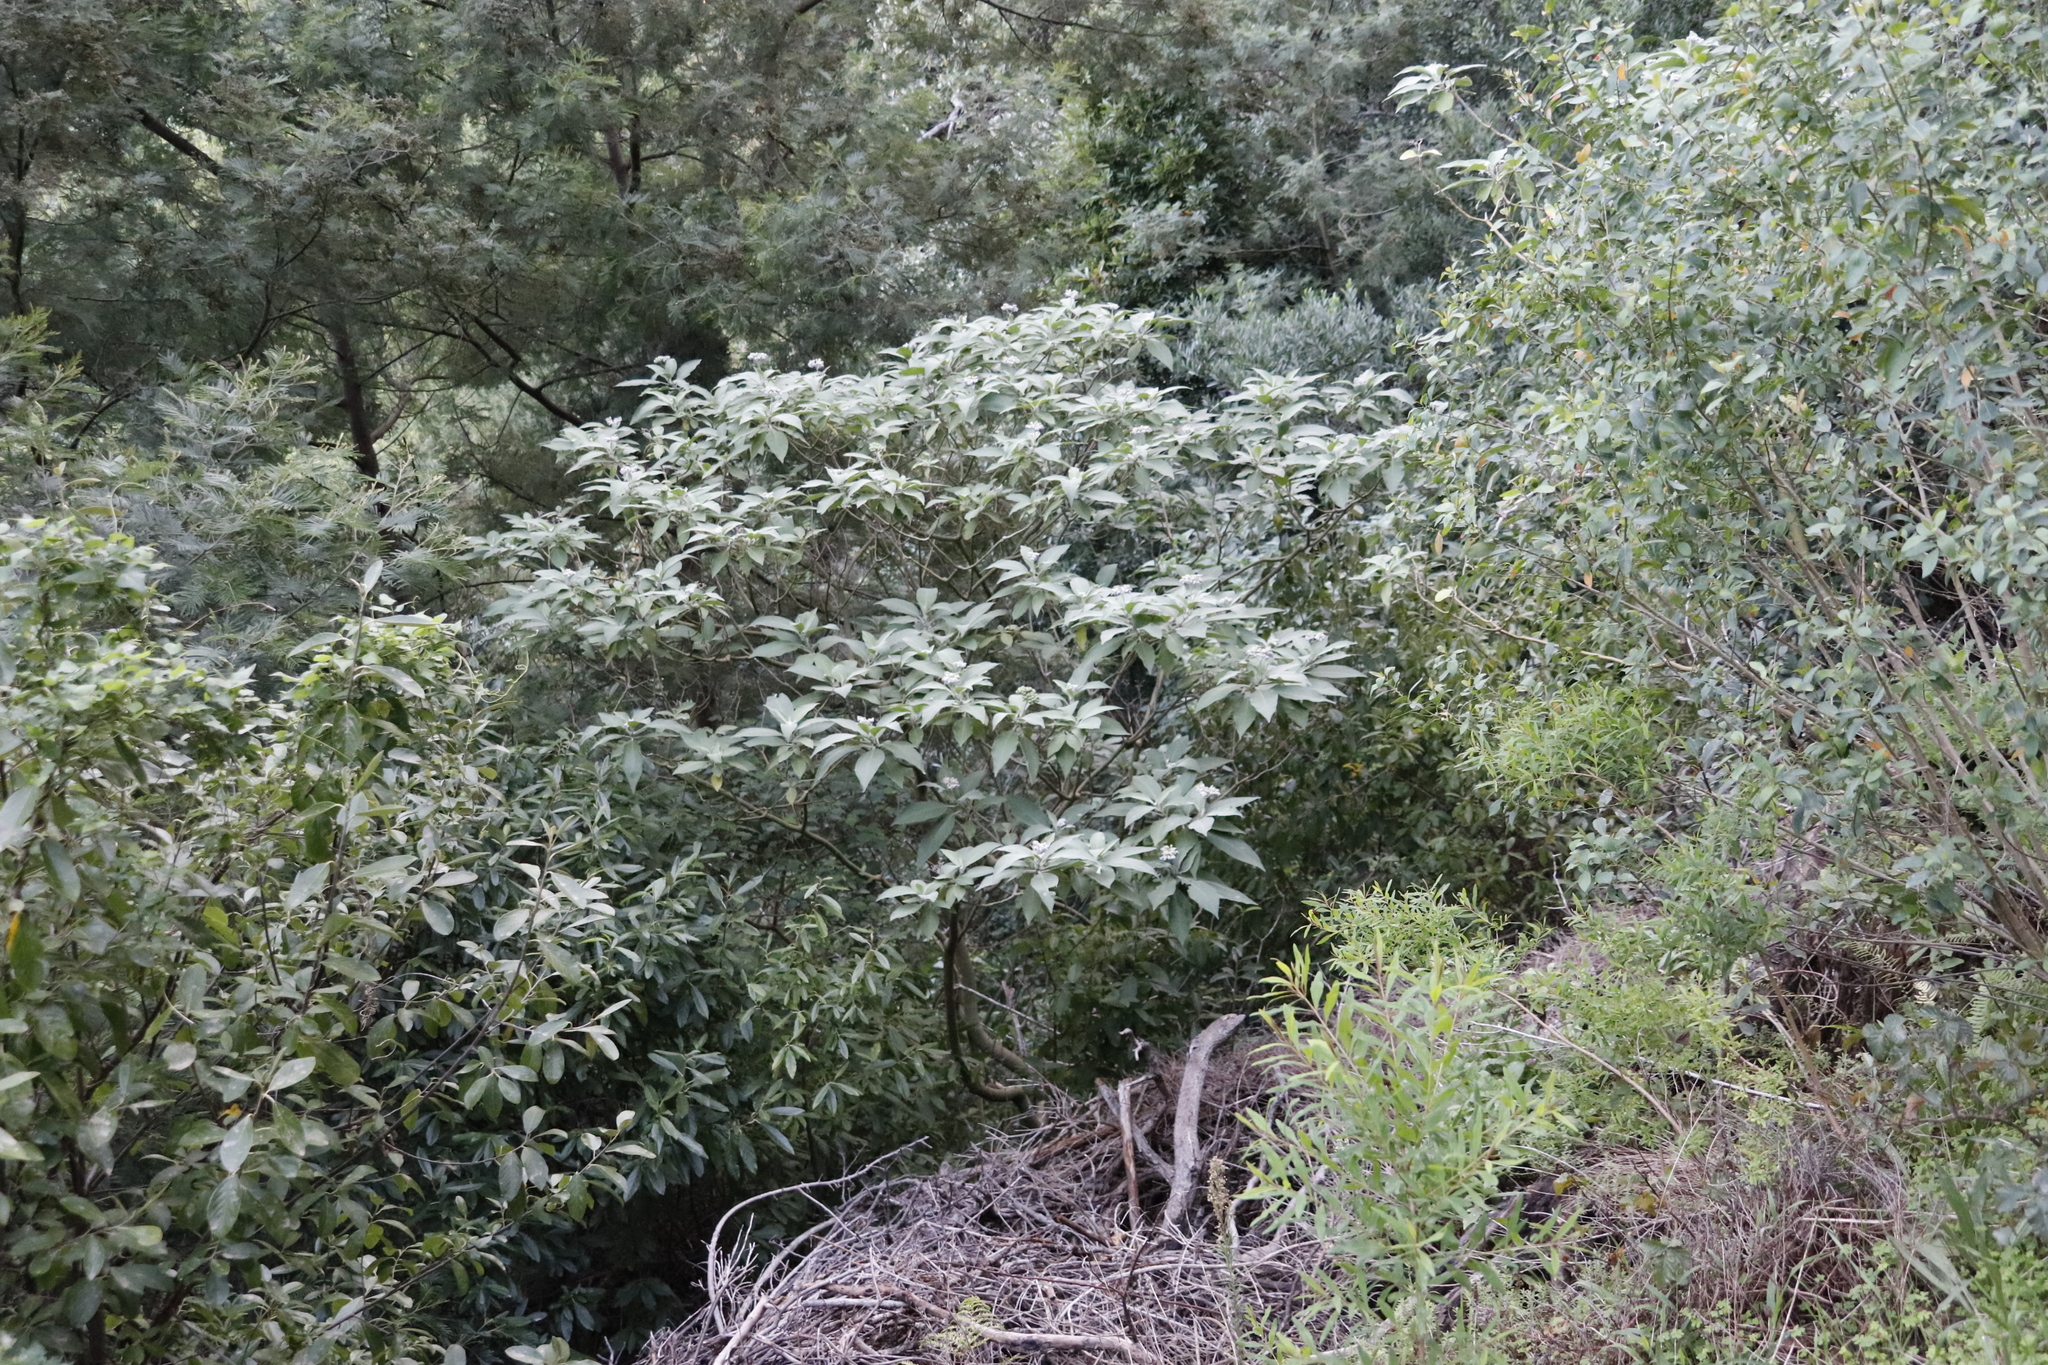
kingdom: Plantae
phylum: Tracheophyta
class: Magnoliopsida
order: Solanales
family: Solanaceae
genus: Solanum
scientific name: Solanum mauritianum
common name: Earleaf nightshade
